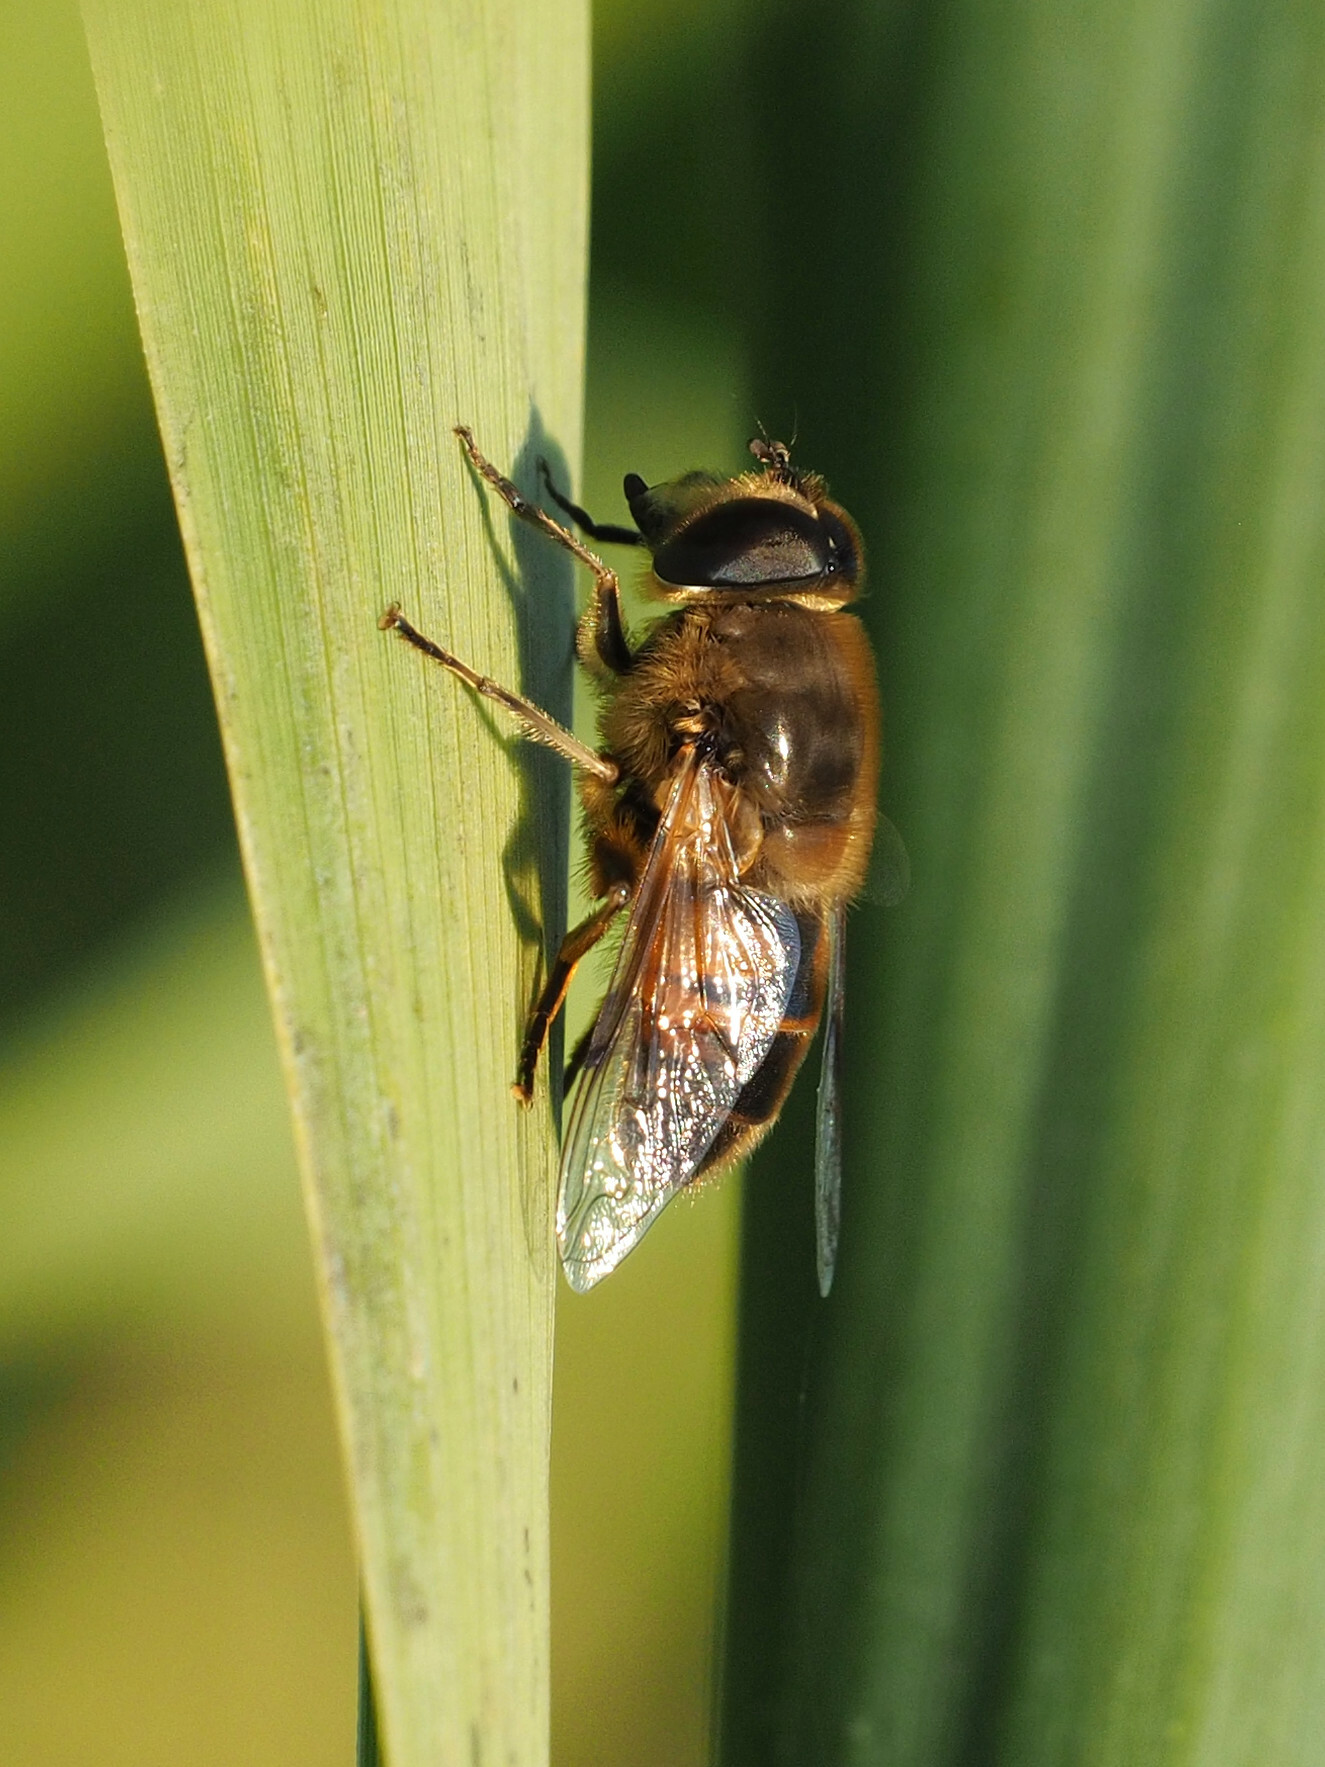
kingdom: Animalia
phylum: Arthropoda
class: Insecta
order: Diptera
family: Syrphidae
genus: Eristalis
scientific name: Eristalis tenax
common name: Drone fly
